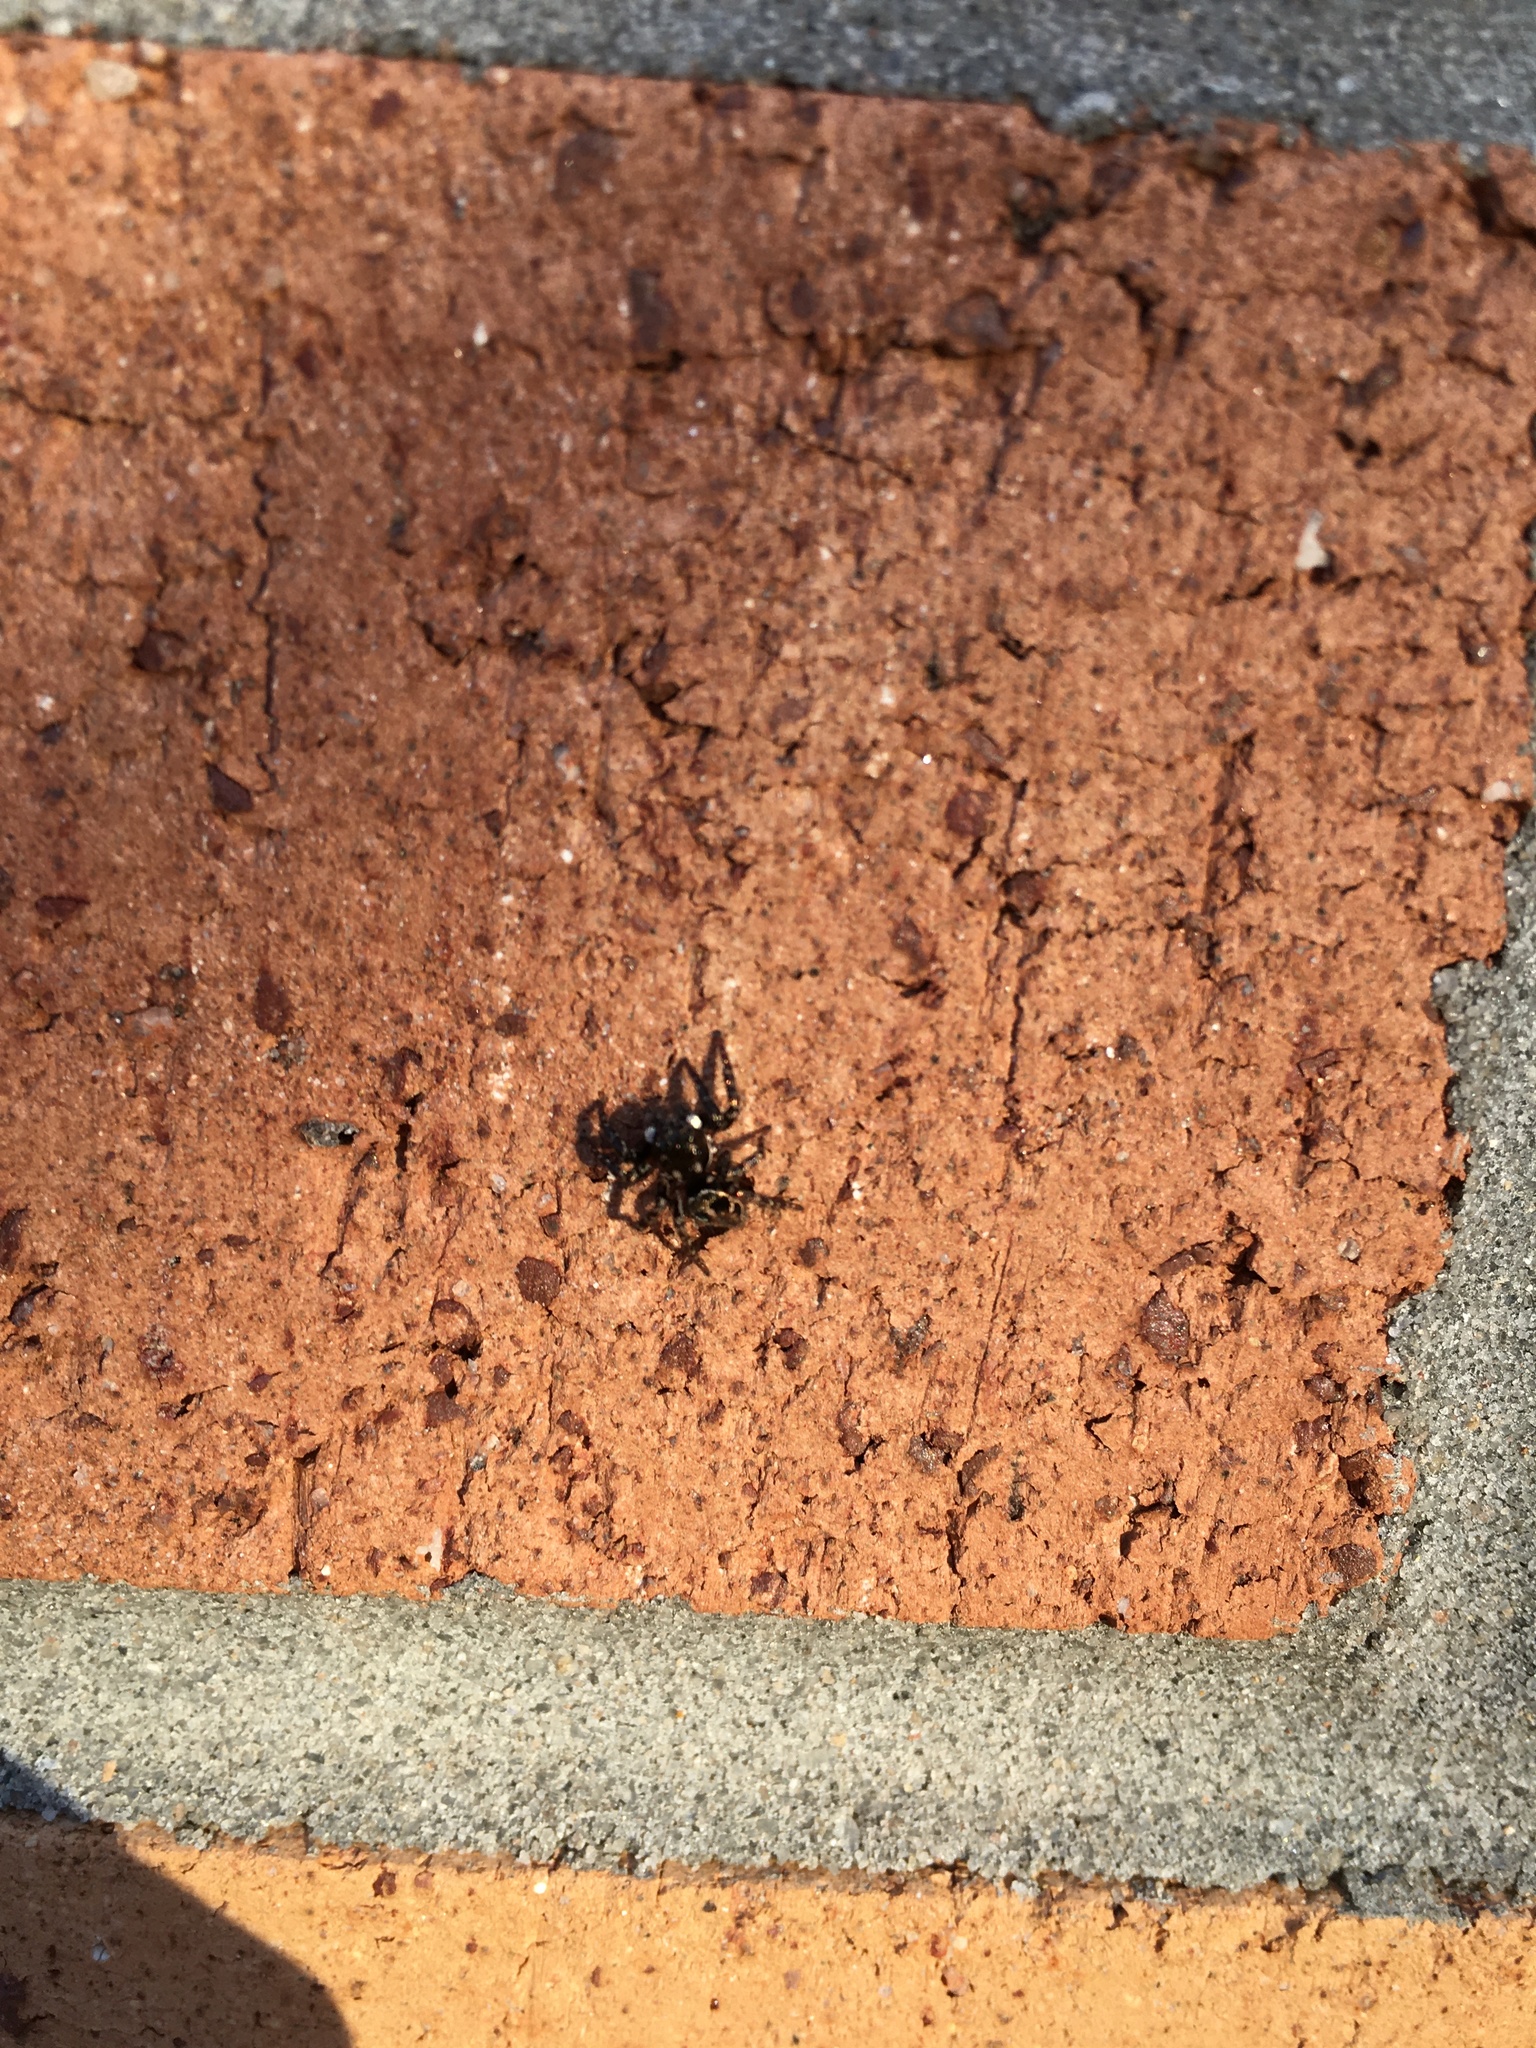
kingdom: Animalia
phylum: Arthropoda
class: Arachnida
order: Araneae
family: Salticidae
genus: Anasaitis
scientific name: Anasaitis canosa
